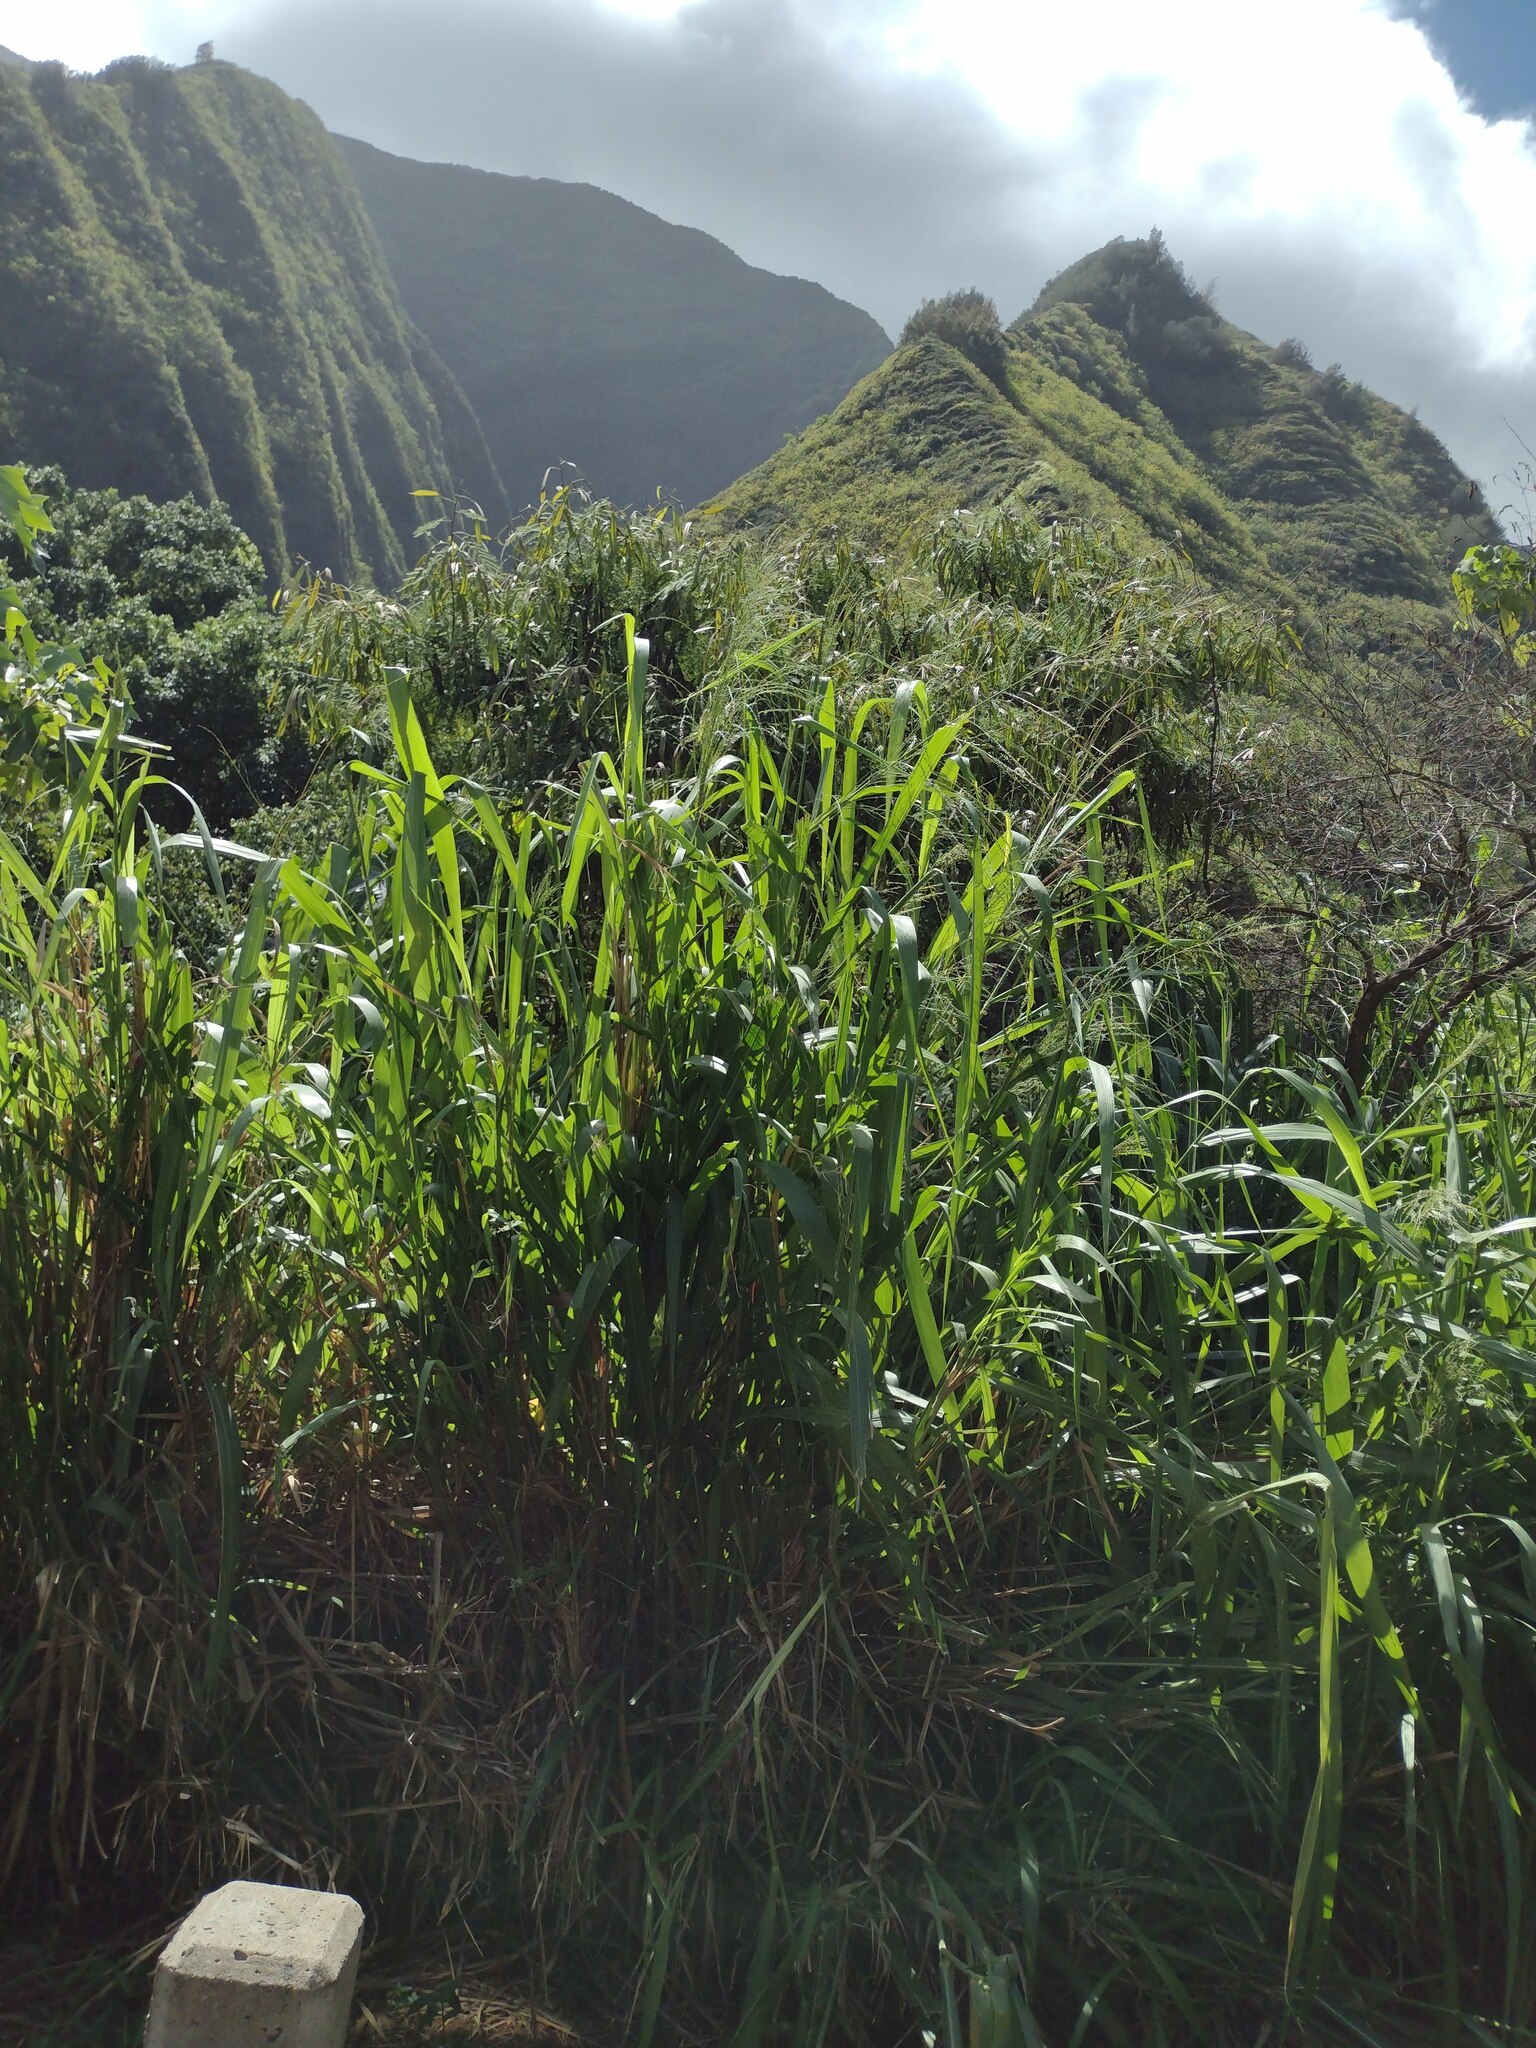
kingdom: Plantae
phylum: Tracheophyta
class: Liliopsida
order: Poales
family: Poaceae
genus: Megathyrsus
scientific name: Megathyrsus maximus
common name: Guineagrass
